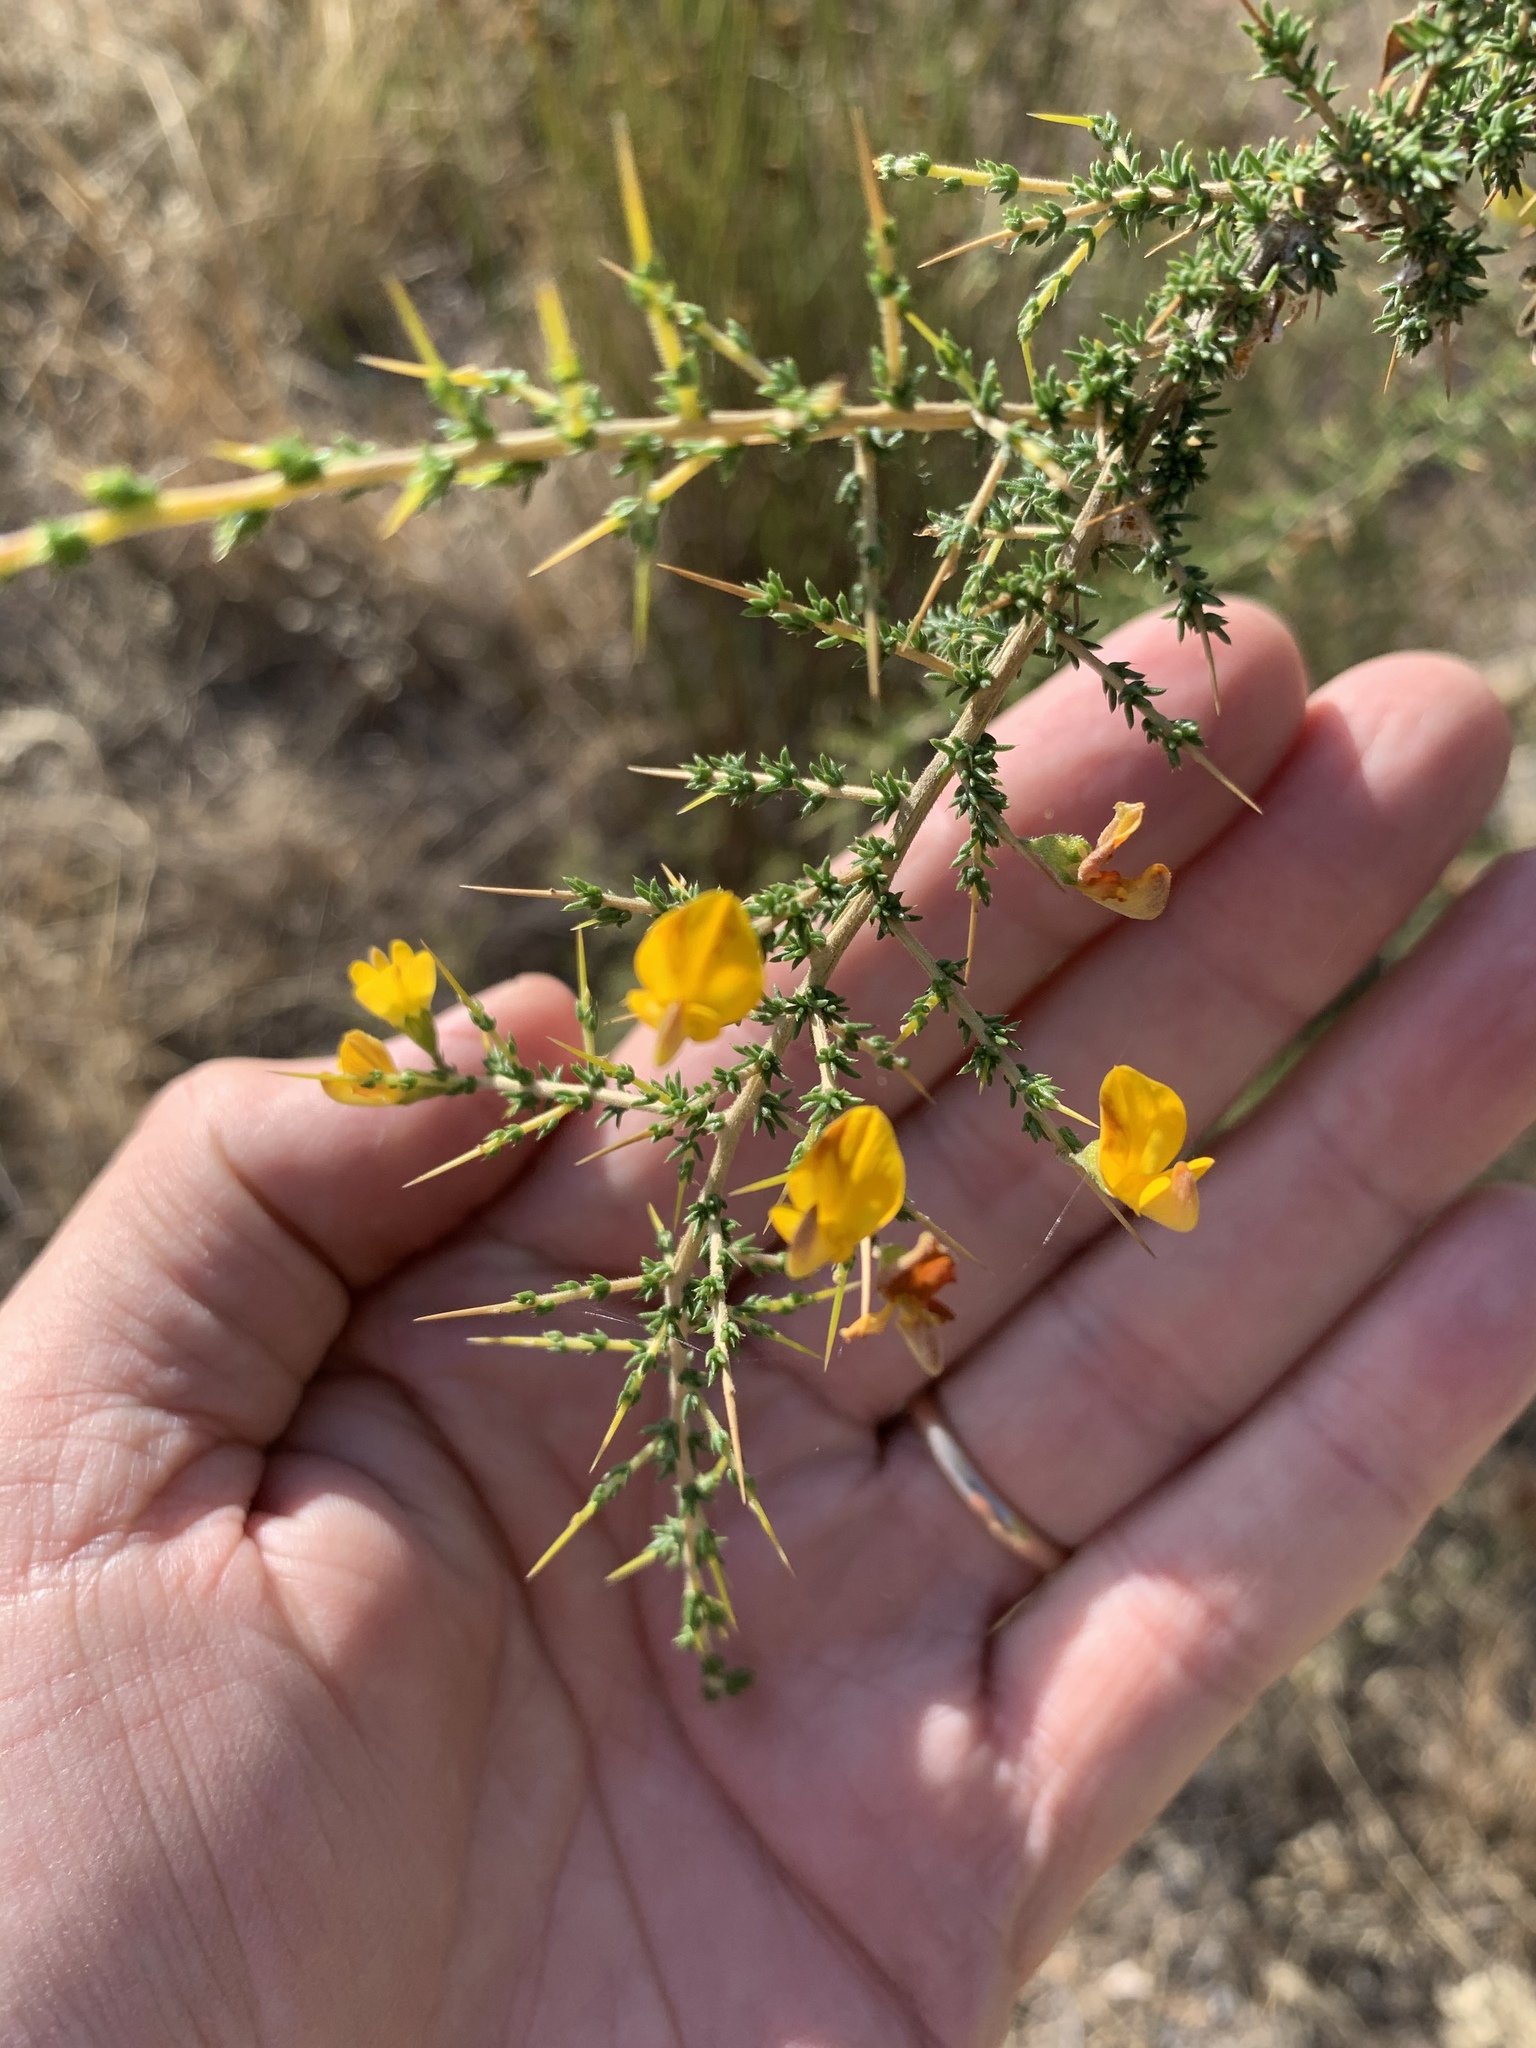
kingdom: Plantae
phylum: Tracheophyta
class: Magnoliopsida
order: Fabales
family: Fabaceae
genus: Aspalathus
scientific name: Aspalathus acuminata
